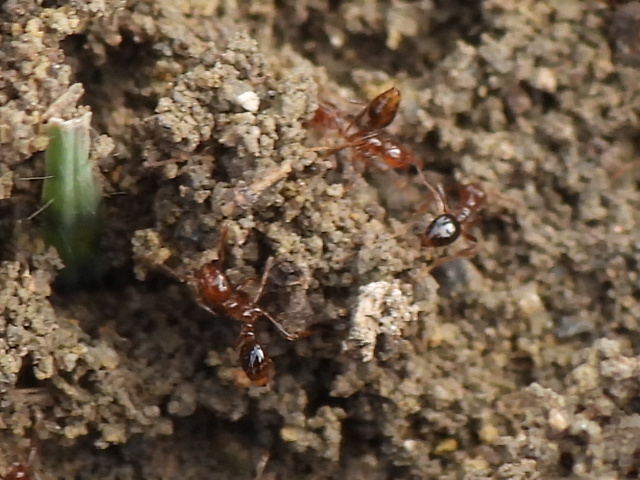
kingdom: Animalia
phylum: Arthropoda
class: Insecta
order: Hymenoptera
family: Formicidae
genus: Solenopsis
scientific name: Solenopsis invicta
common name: Red imported fire ant
